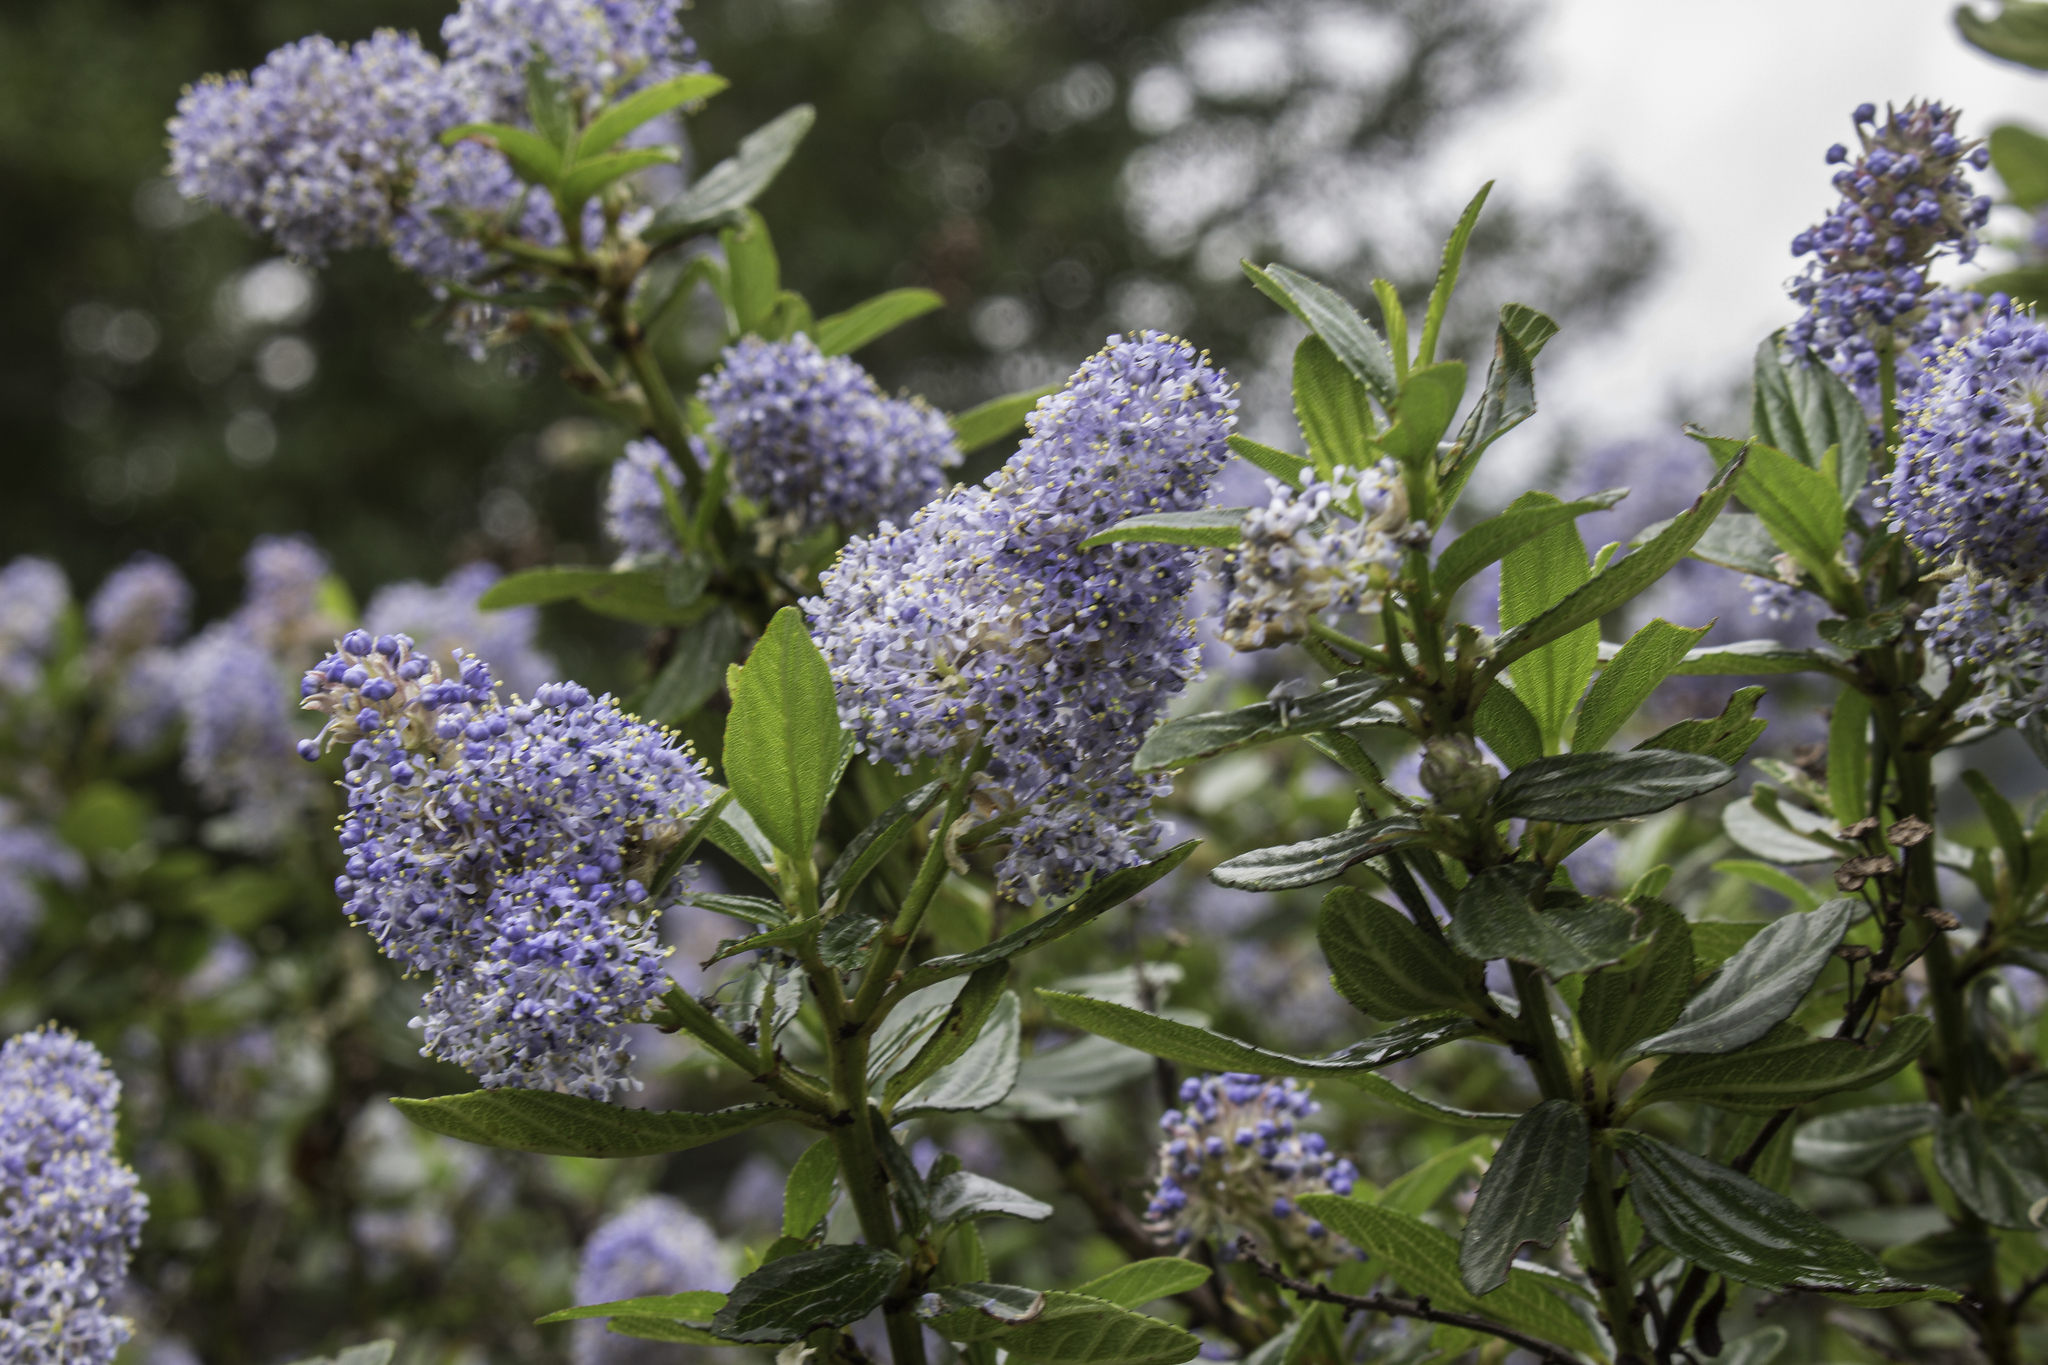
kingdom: Plantae
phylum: Tracheophyta
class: Magnoliopsida
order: Rosales
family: Rhamnaceae
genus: Ceanothus
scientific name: Ceanothus thyrsiflorus
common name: California-lilac
